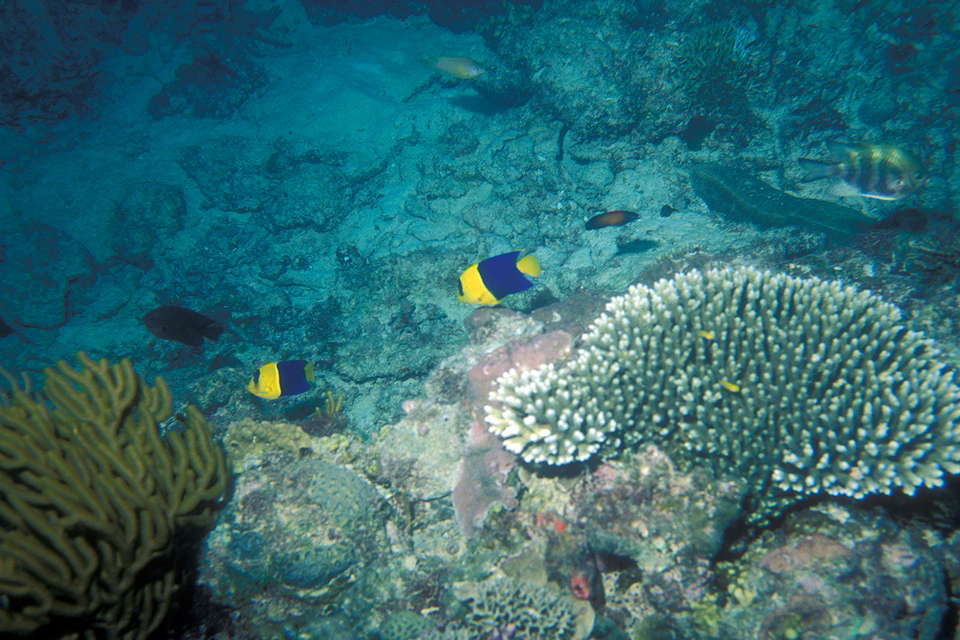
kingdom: Animalia
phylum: Chordata
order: Perciformes
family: Pomacanthidae
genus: Centropyge
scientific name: Centropyge bicolor
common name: Bicolor angelfish
